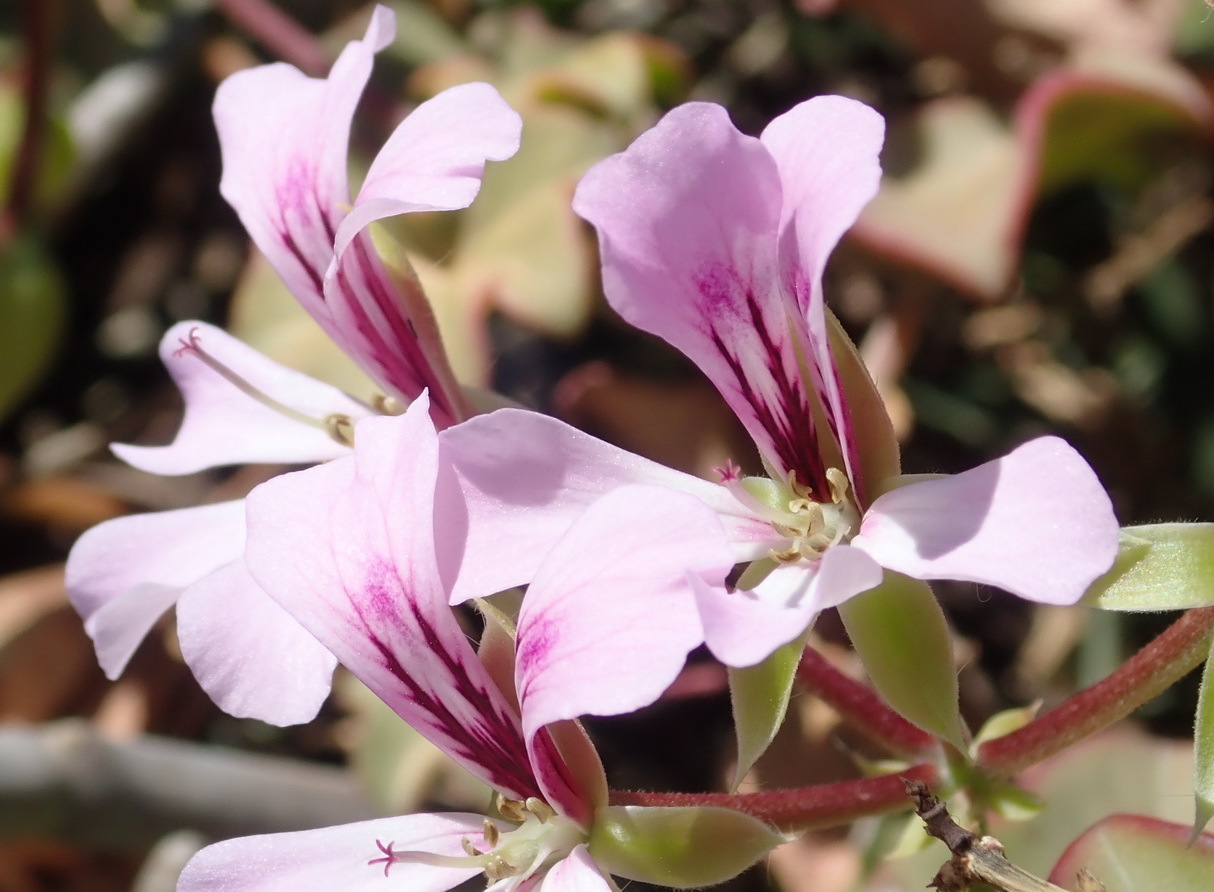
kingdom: Plantae
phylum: Tracheophyta
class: Magnoliopsida
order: Geraniales
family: Geraniaceae
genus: Pelargonium
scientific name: Pelargonium peltatum
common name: Ivyleaf geranium
